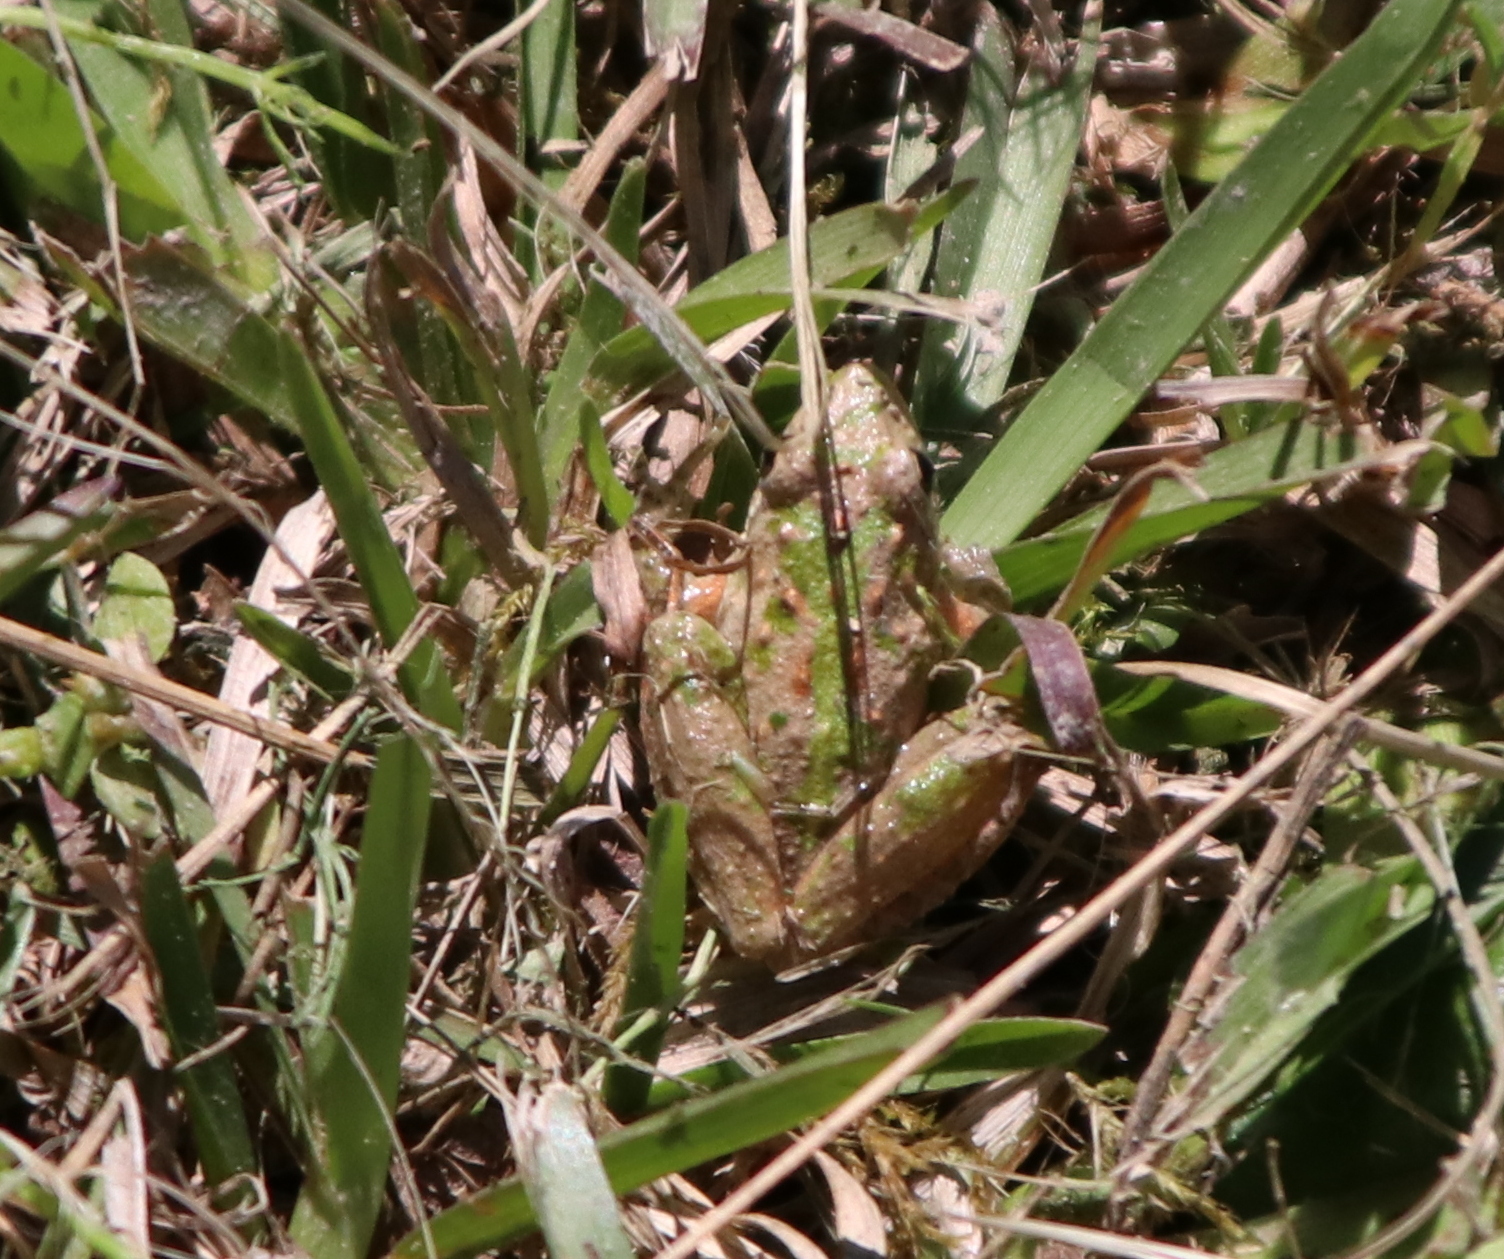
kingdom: Animalia
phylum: Chordata
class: Amphibia
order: Anura
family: Hylidae
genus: Acris
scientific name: Acris gryllus
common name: Southern cricket frog
